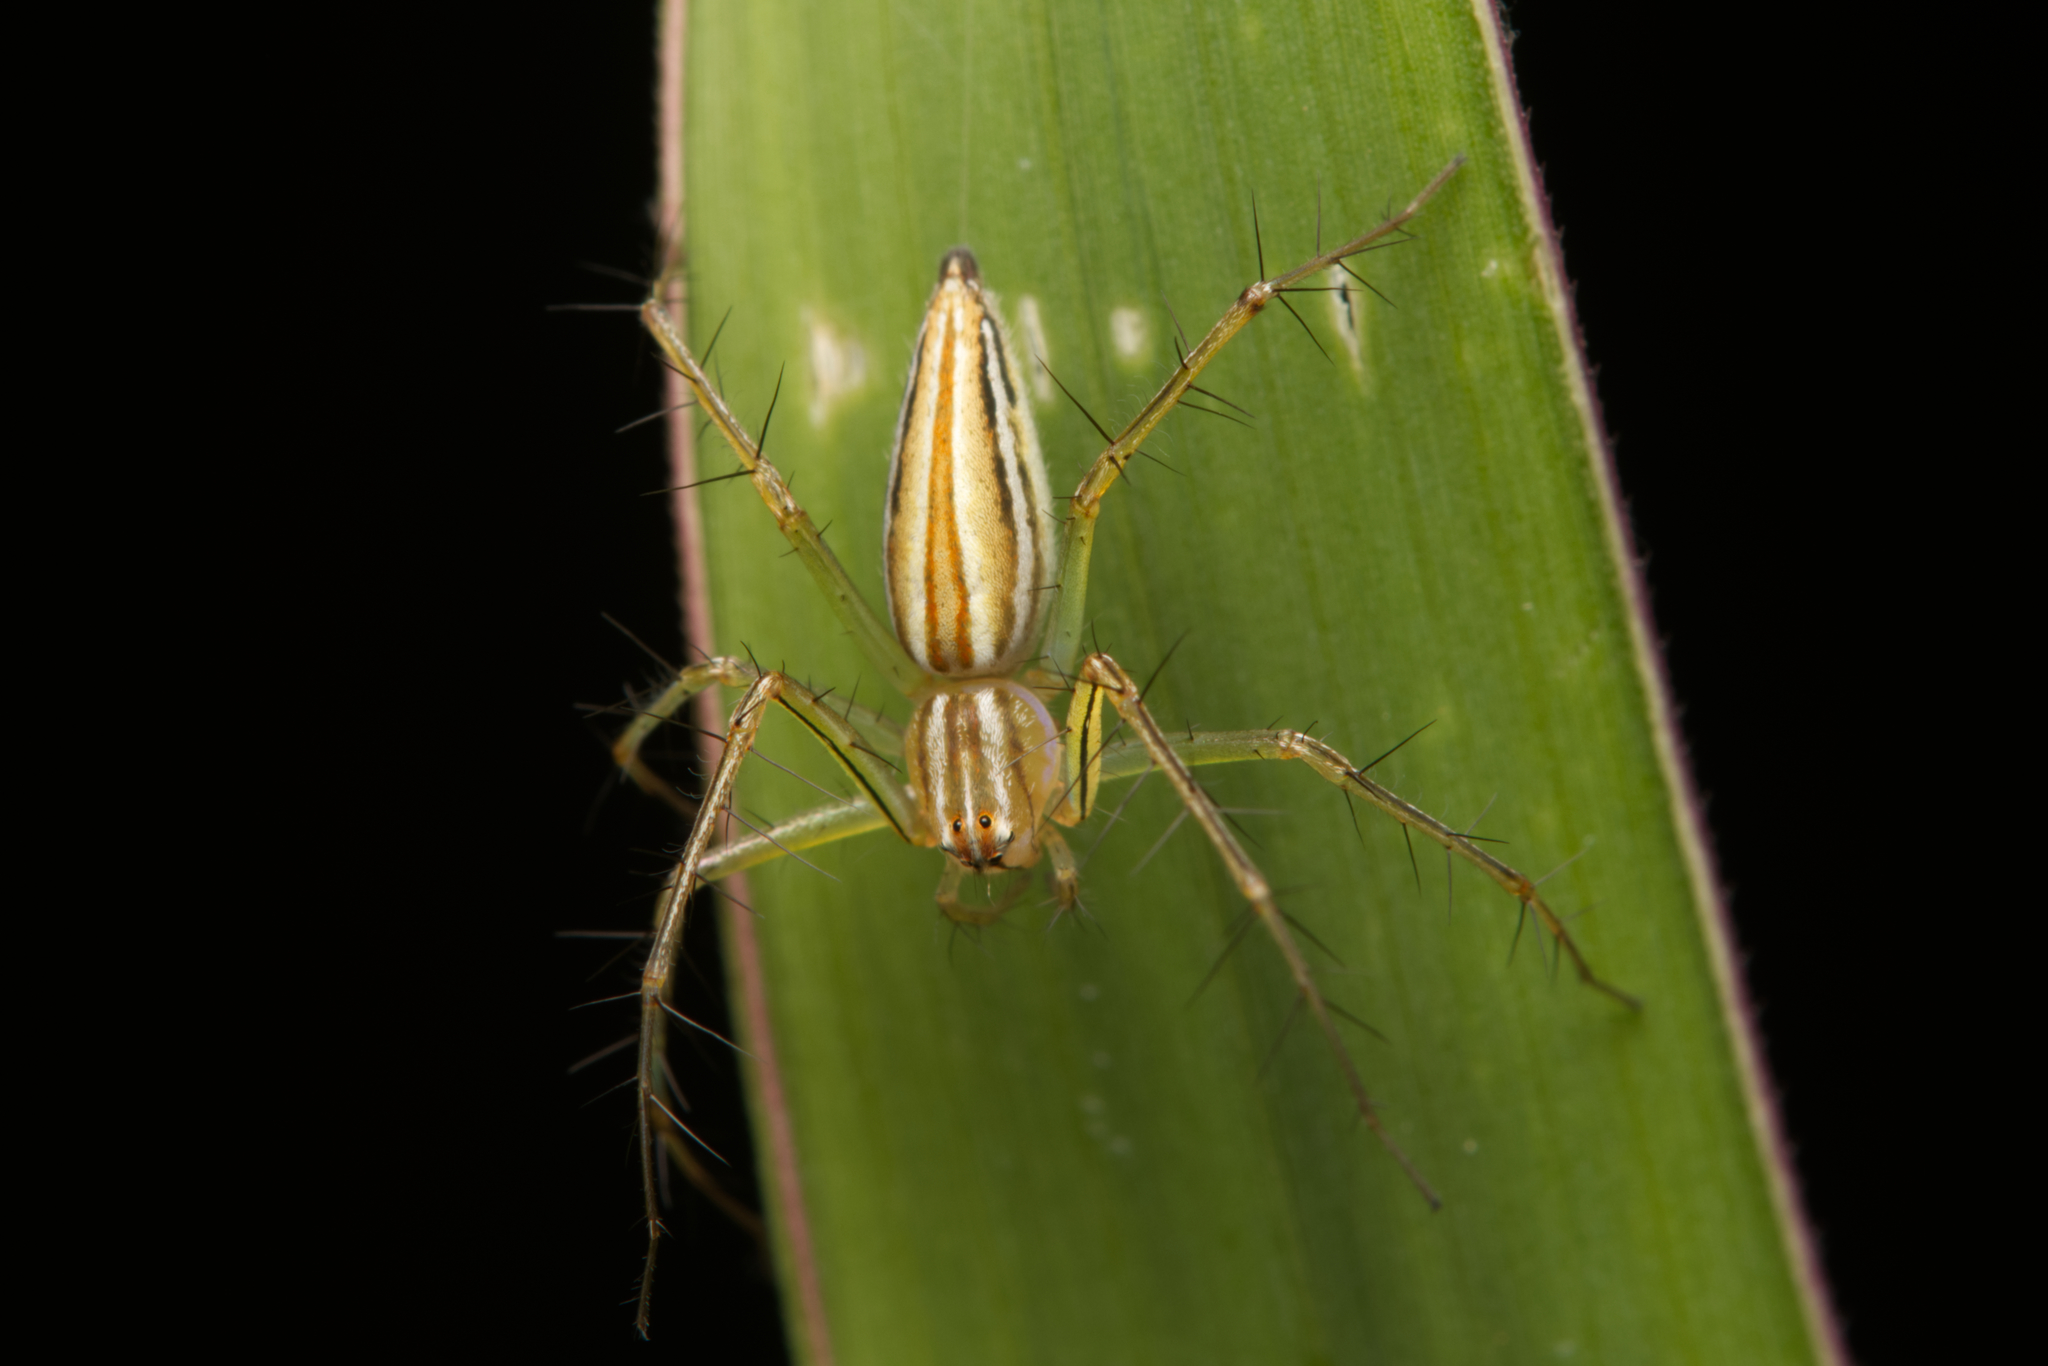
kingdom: Animalia
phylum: Arthropoda
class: Arachnida
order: Araneae
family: Oxyopidae
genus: Oxyopes
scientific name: Oxyopes macilentus
